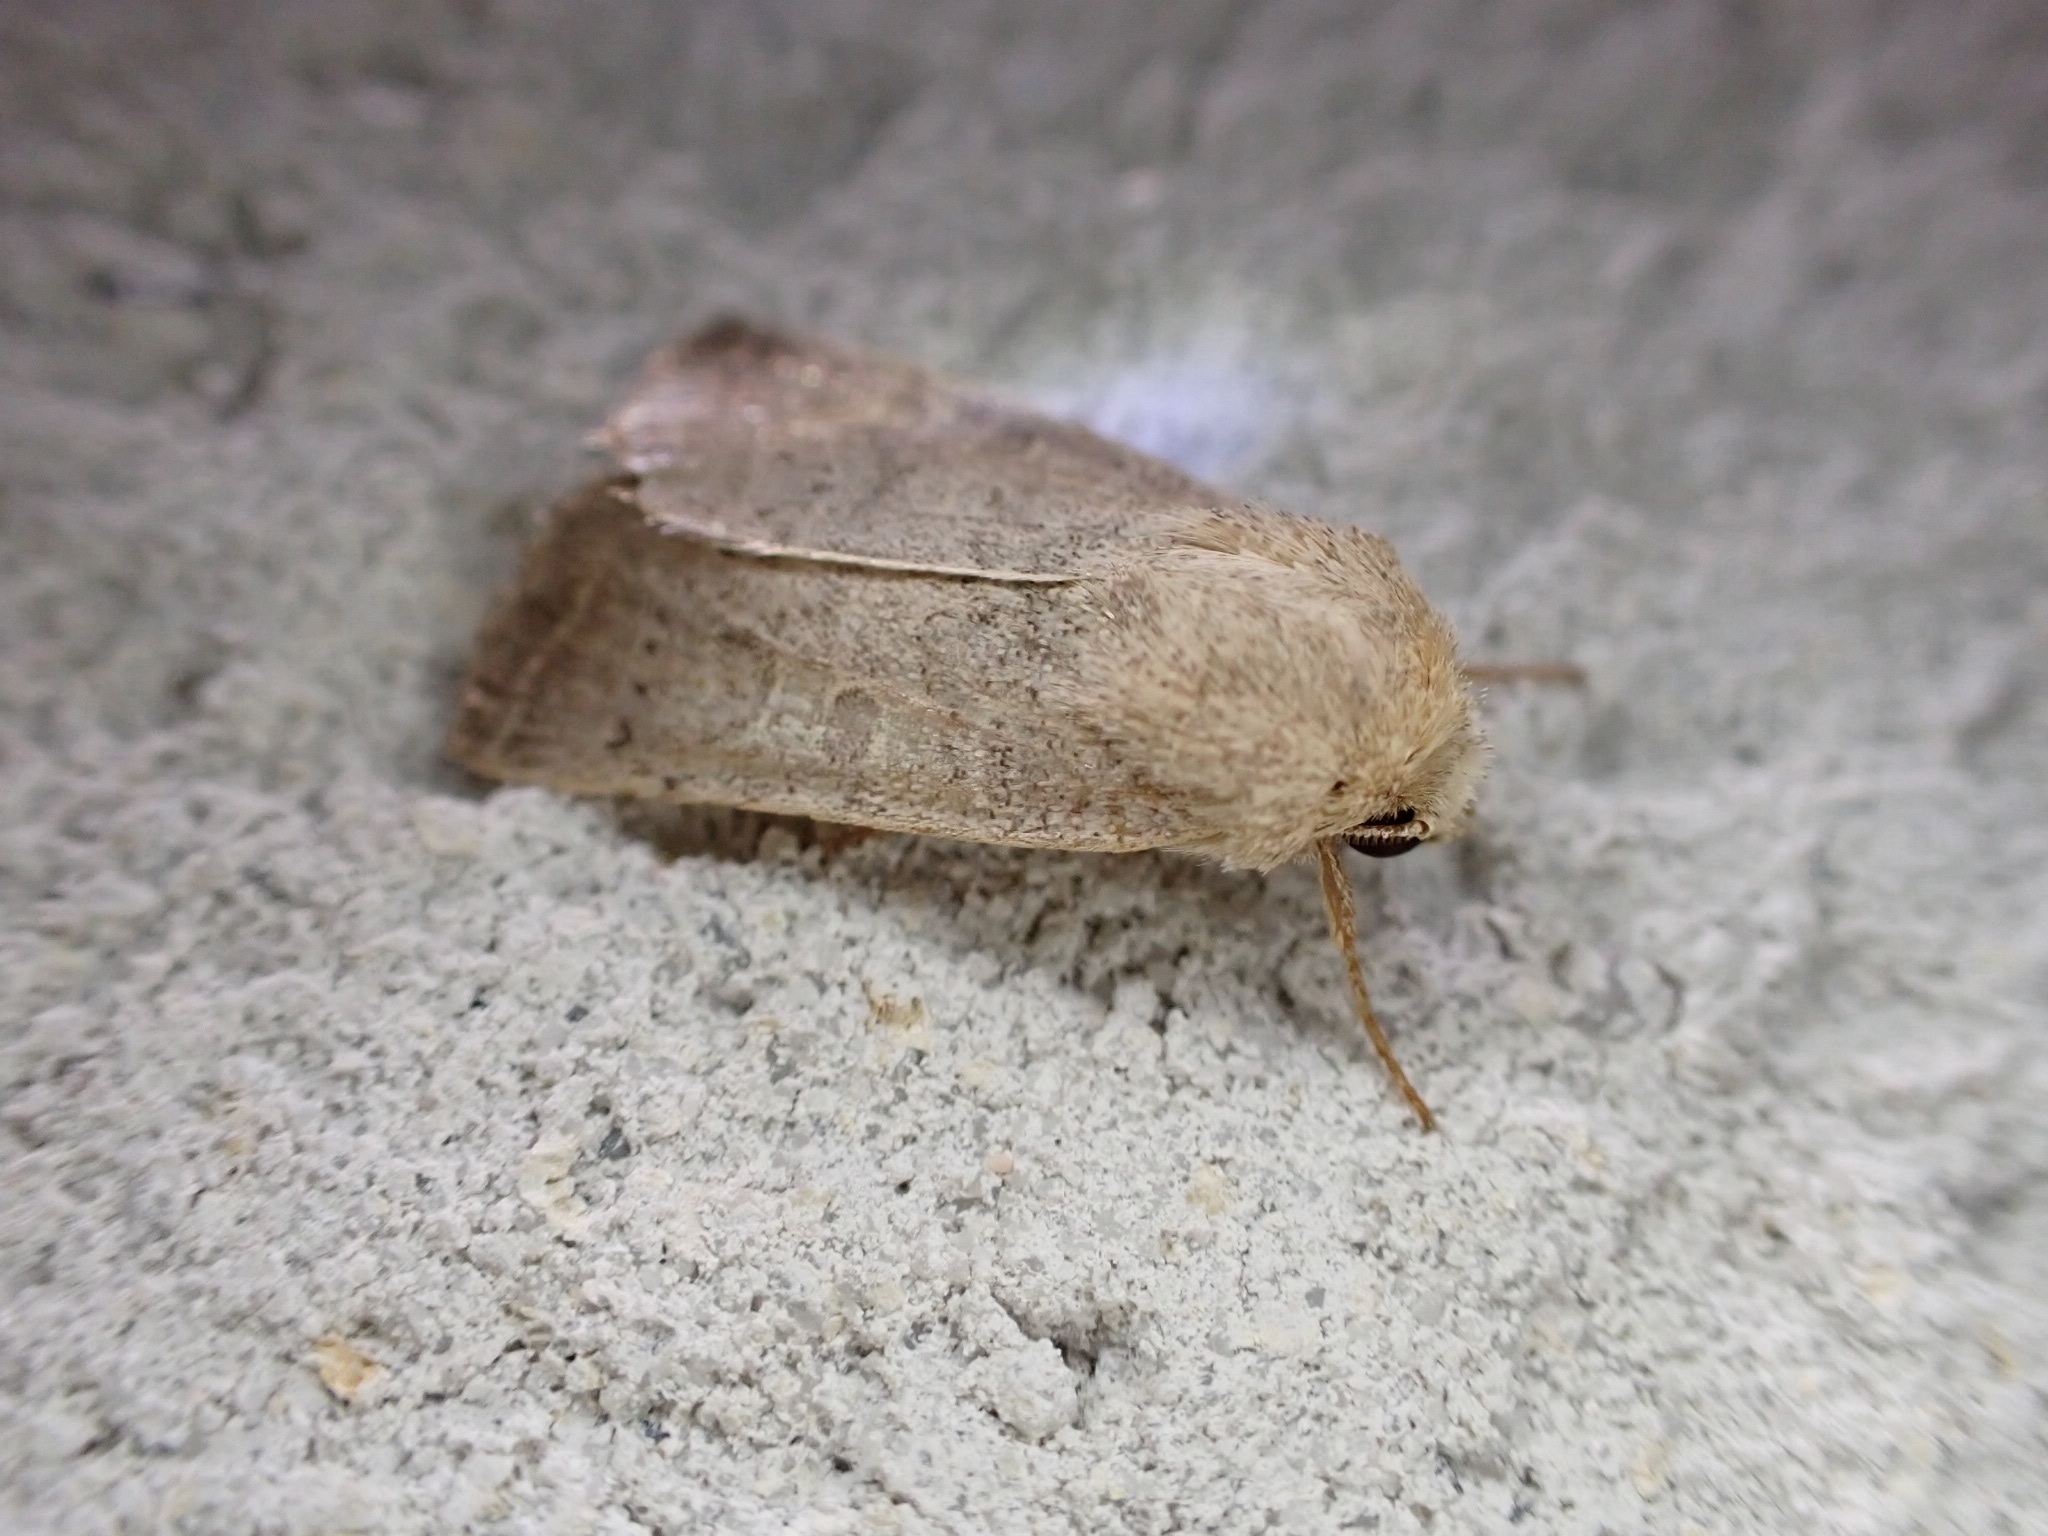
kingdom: Animalia
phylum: Arthropoda
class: Insecta
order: Lepidoptera
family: Noctuidae
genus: Hoplodrina
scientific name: Hoplodrina ambigua
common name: Vine's rustic
